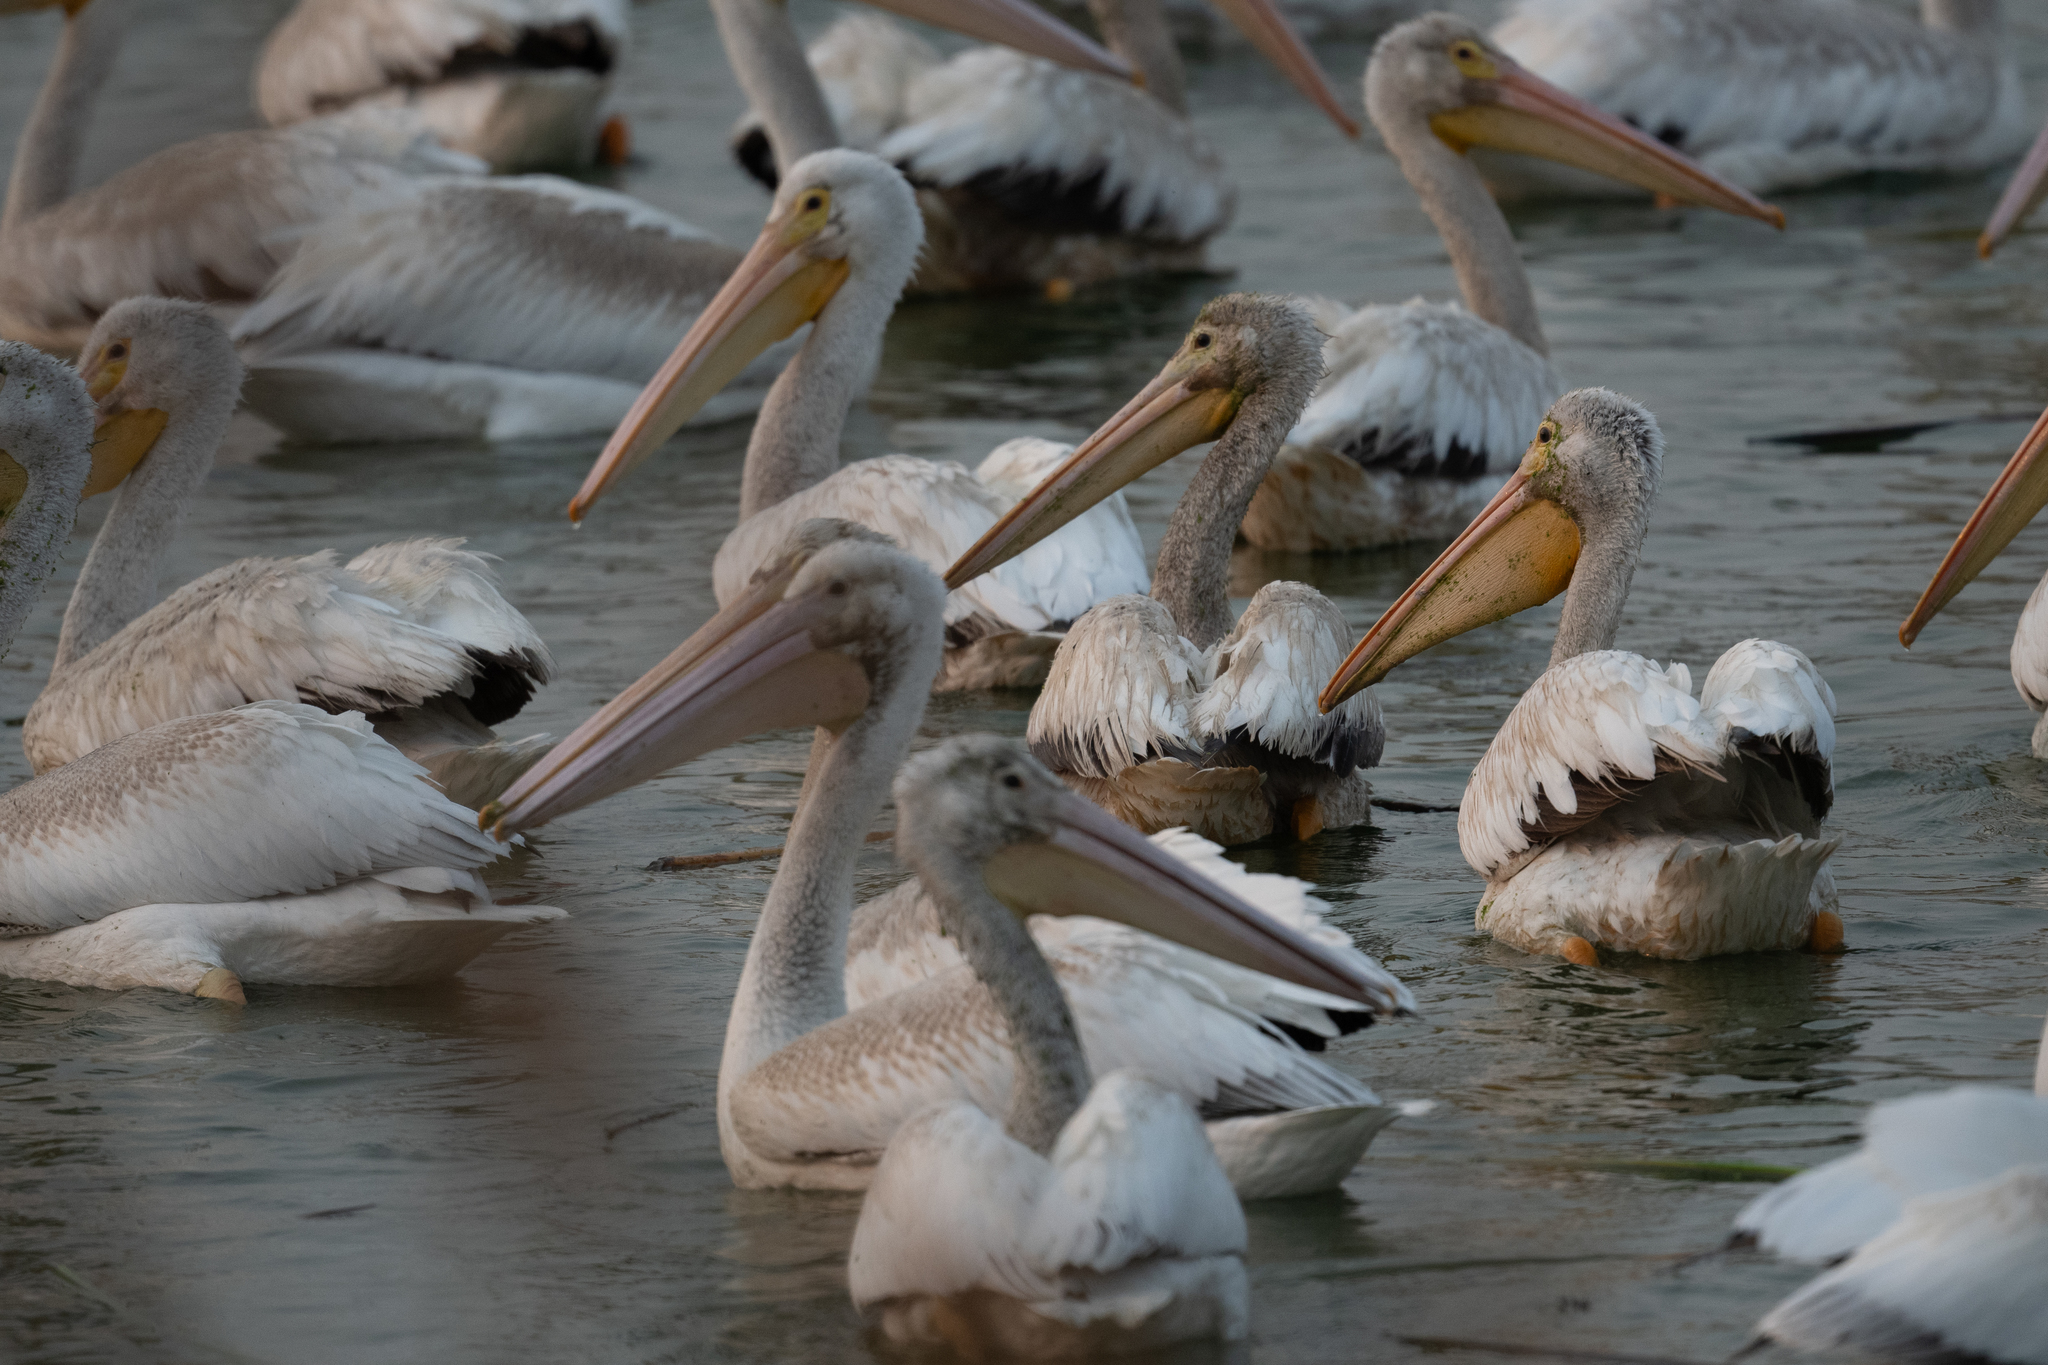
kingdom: Animalia
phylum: Chordata
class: Aves
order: Pelecaniformes
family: Pelecanidae
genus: Pelecanus
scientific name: Pelecanus erythrorhynchos
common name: American white pelican
